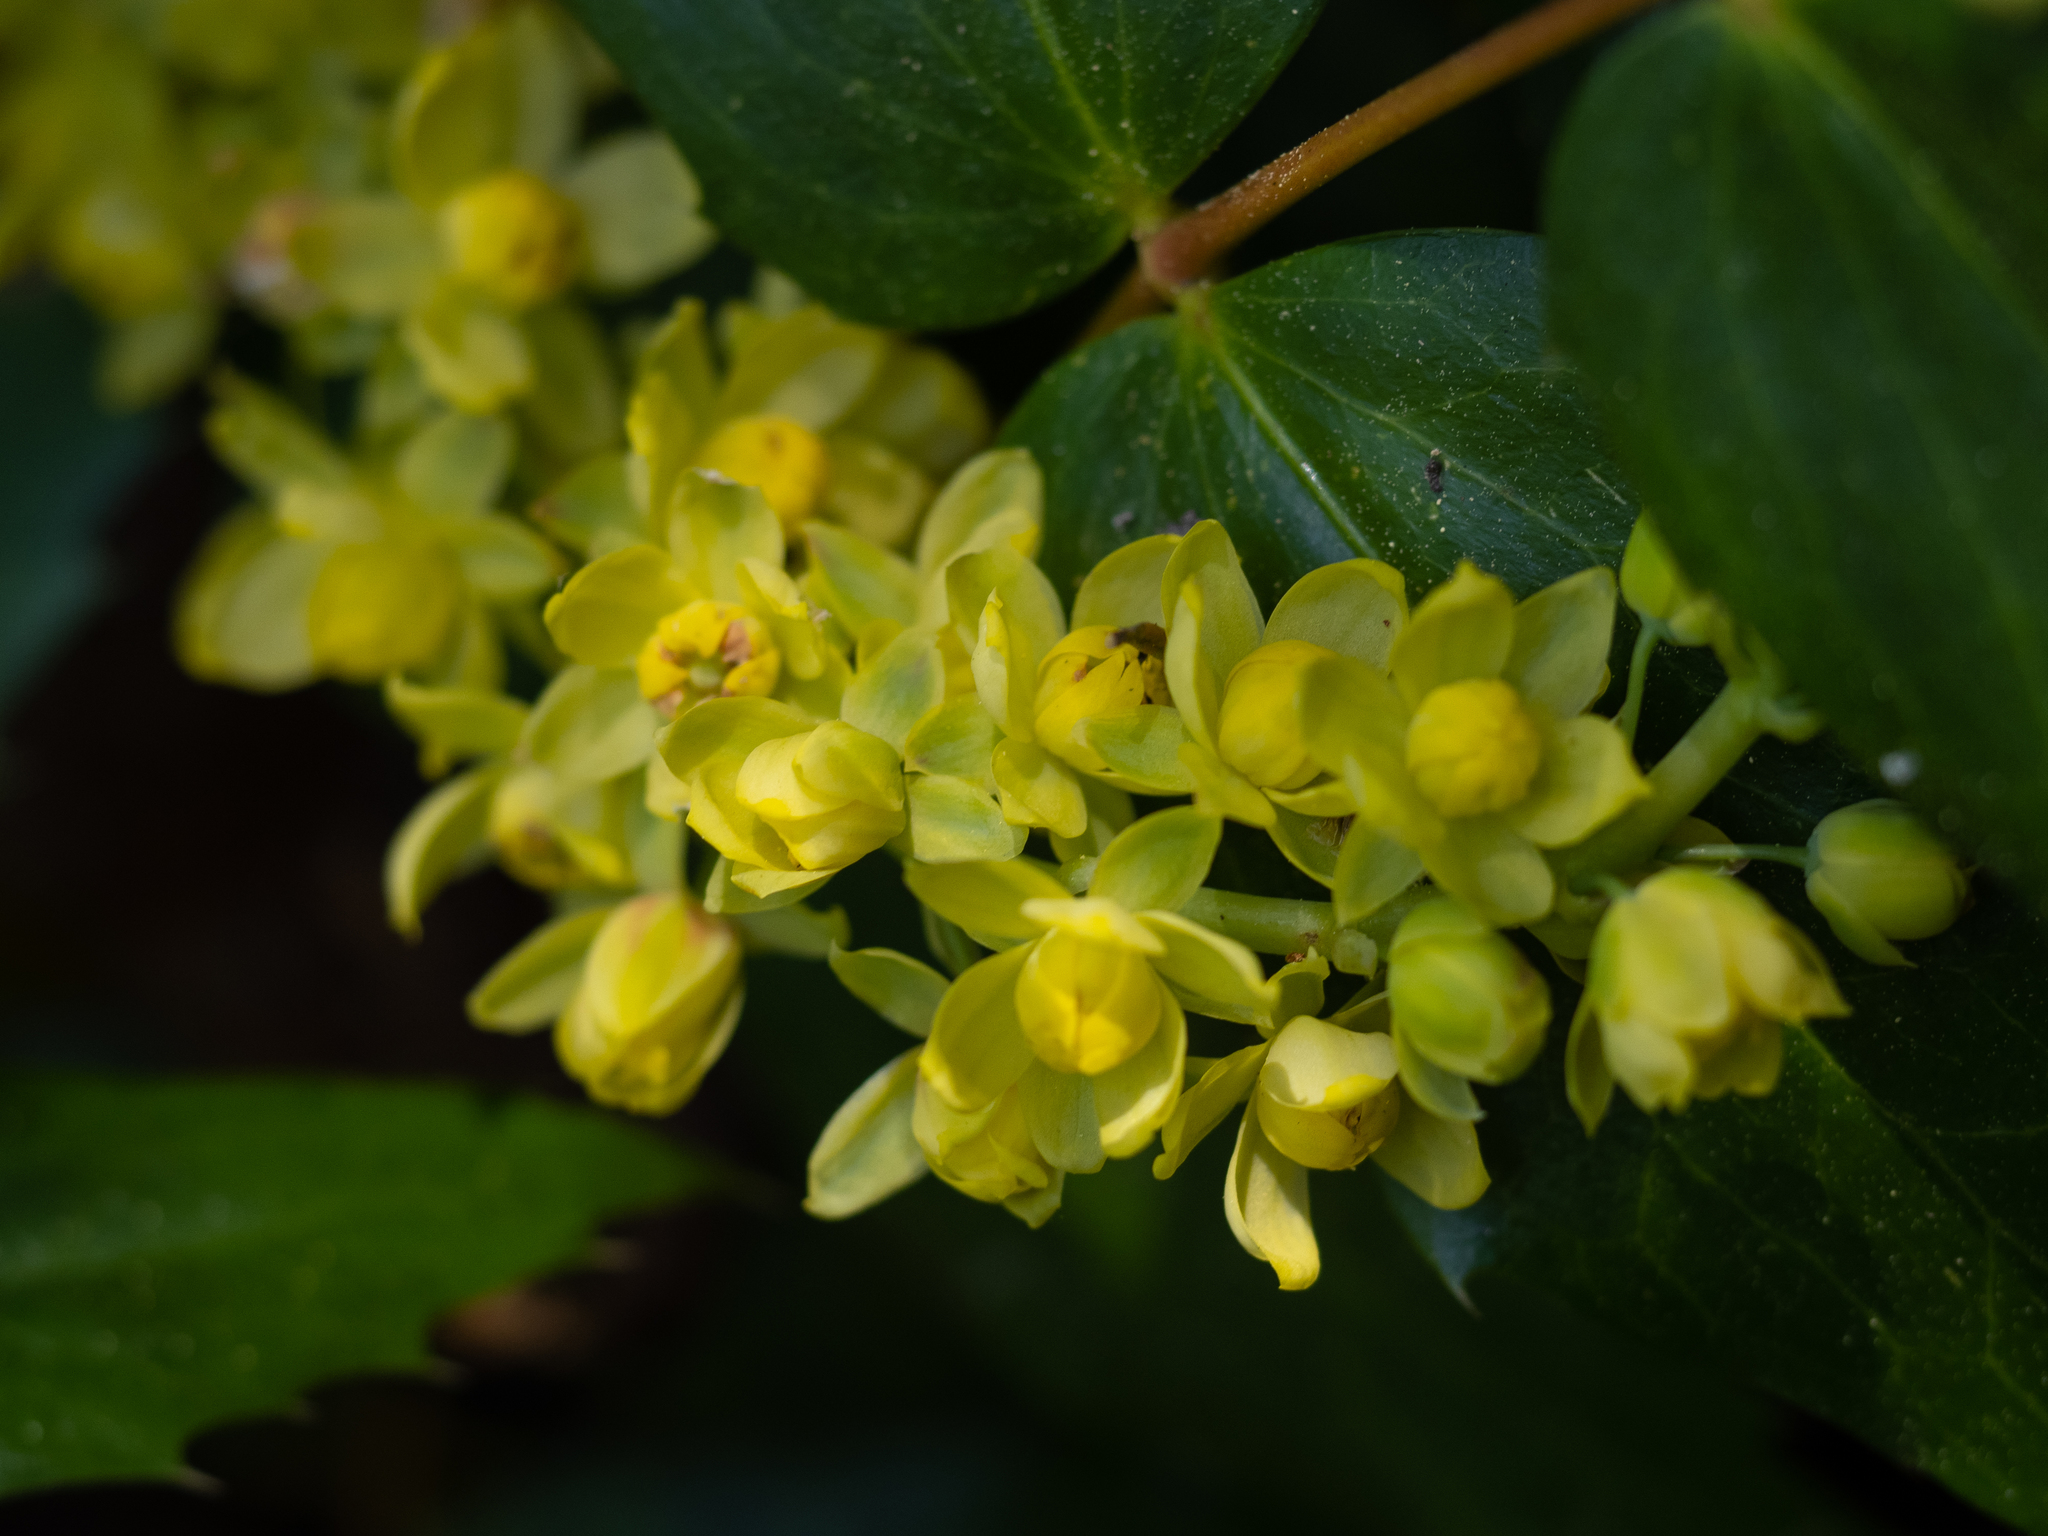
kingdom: Plantae
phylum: Tracheophyta
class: Magnoliopsida
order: Ranunculales
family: Berberidaceae
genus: Mahonia
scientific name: Mahonia nervosa
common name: Cascade oregon-grape
